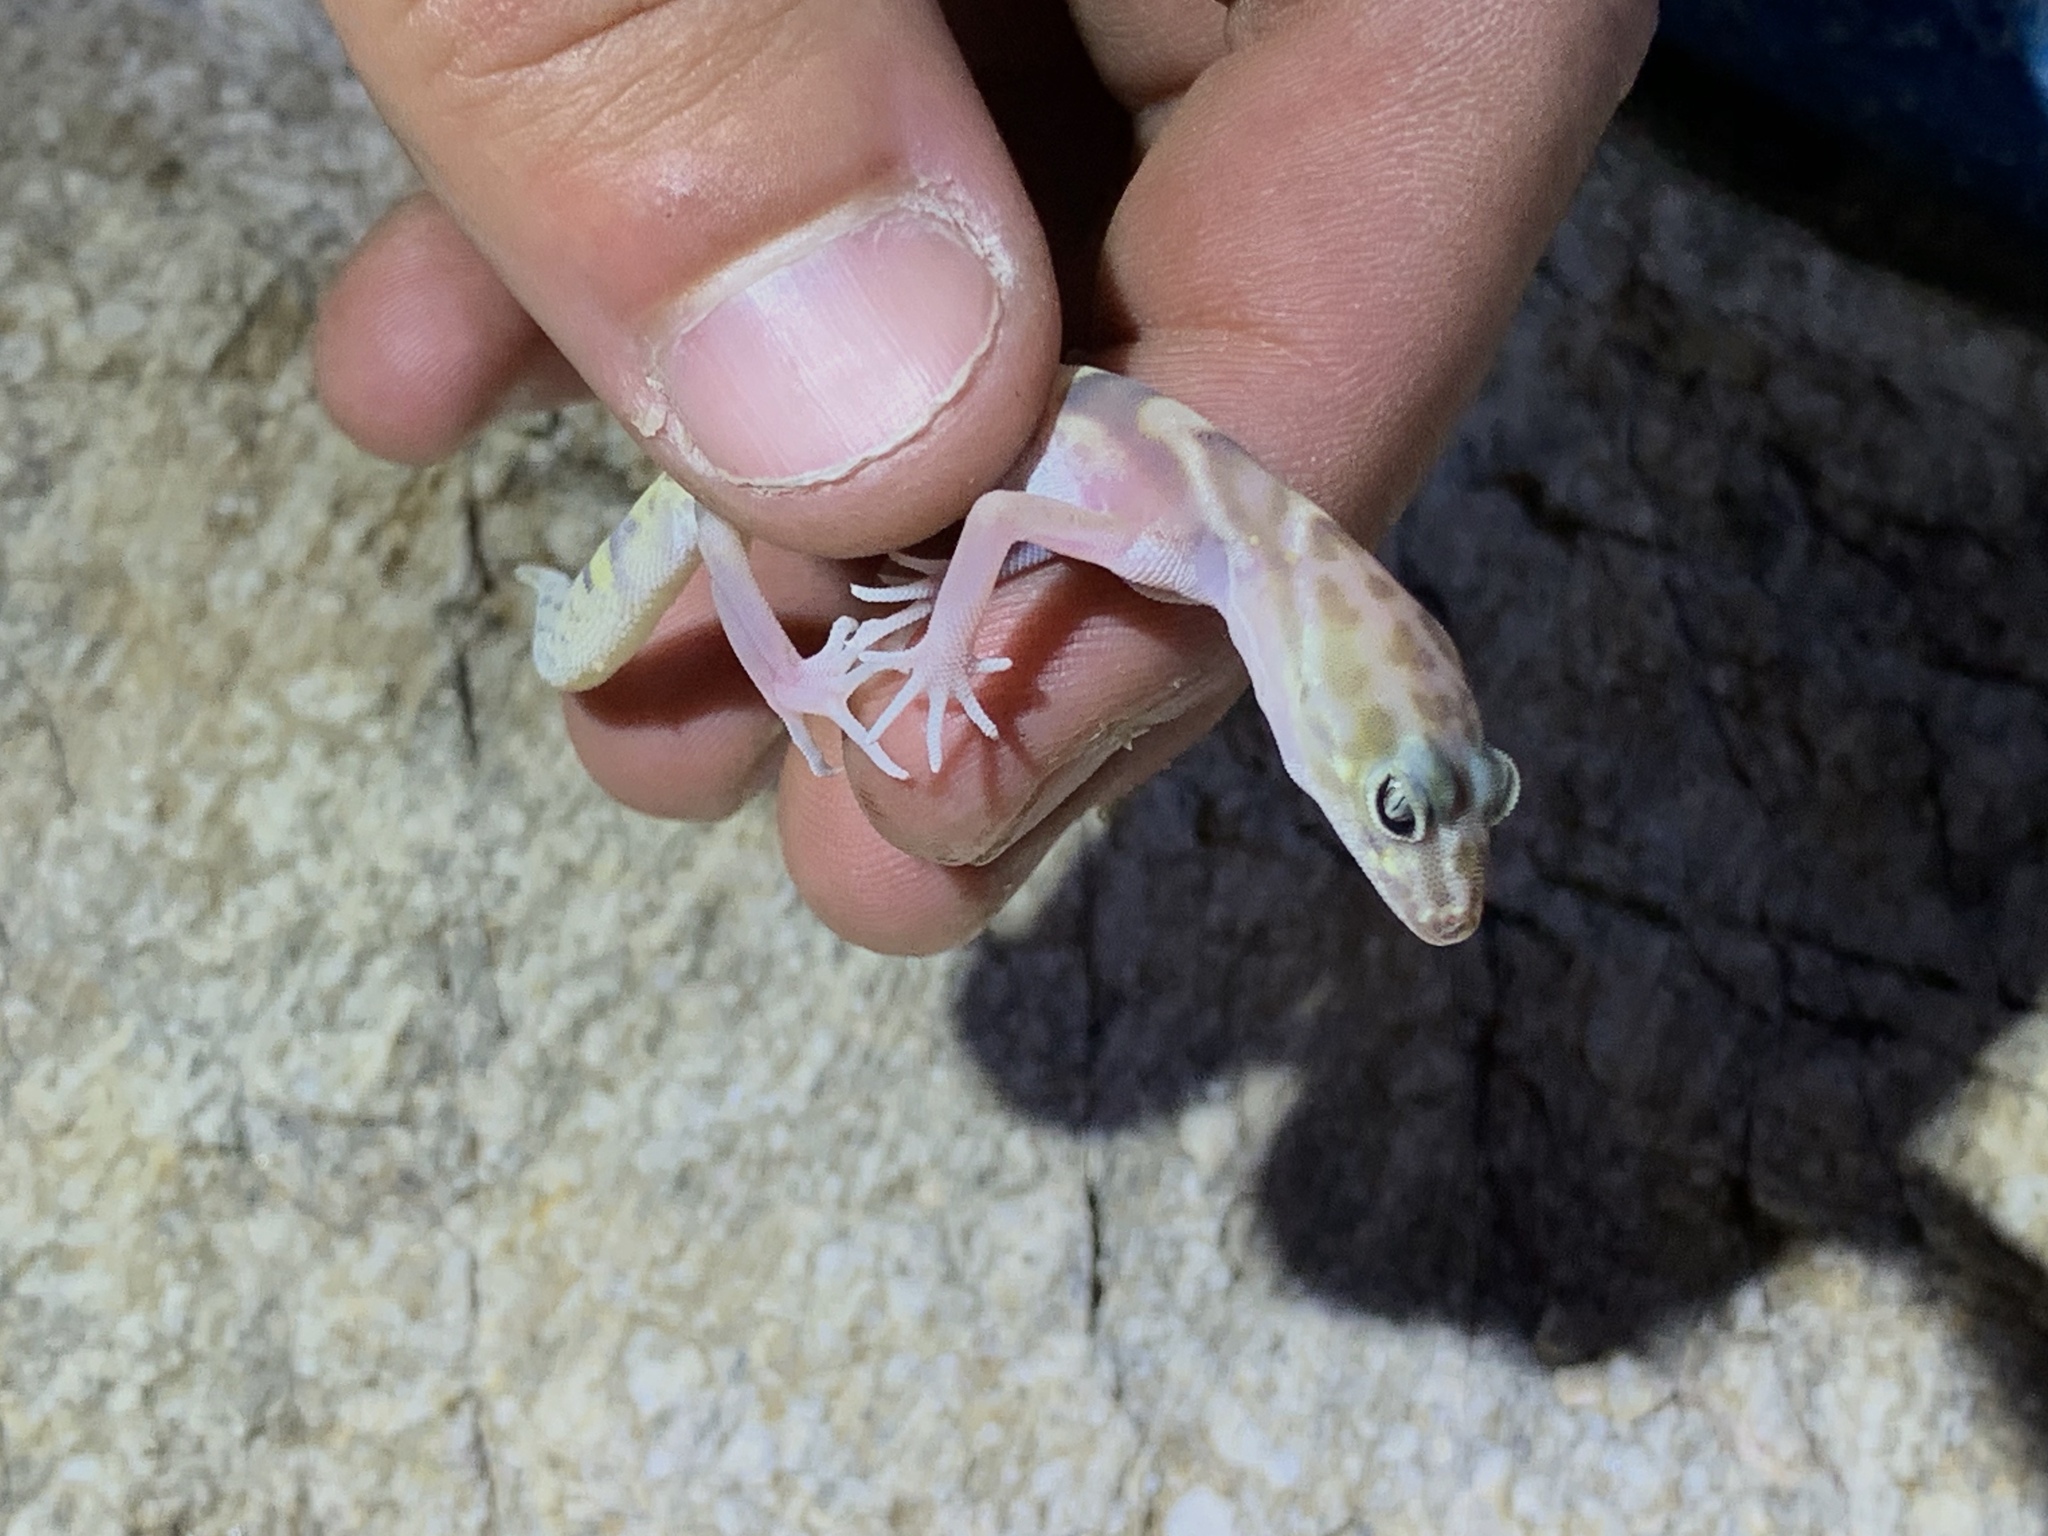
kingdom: Animalia
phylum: Chordata
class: Squamata
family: Eublepharidae
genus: Coleonyx
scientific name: Coleonyx variegatus
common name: Western banded gecko
